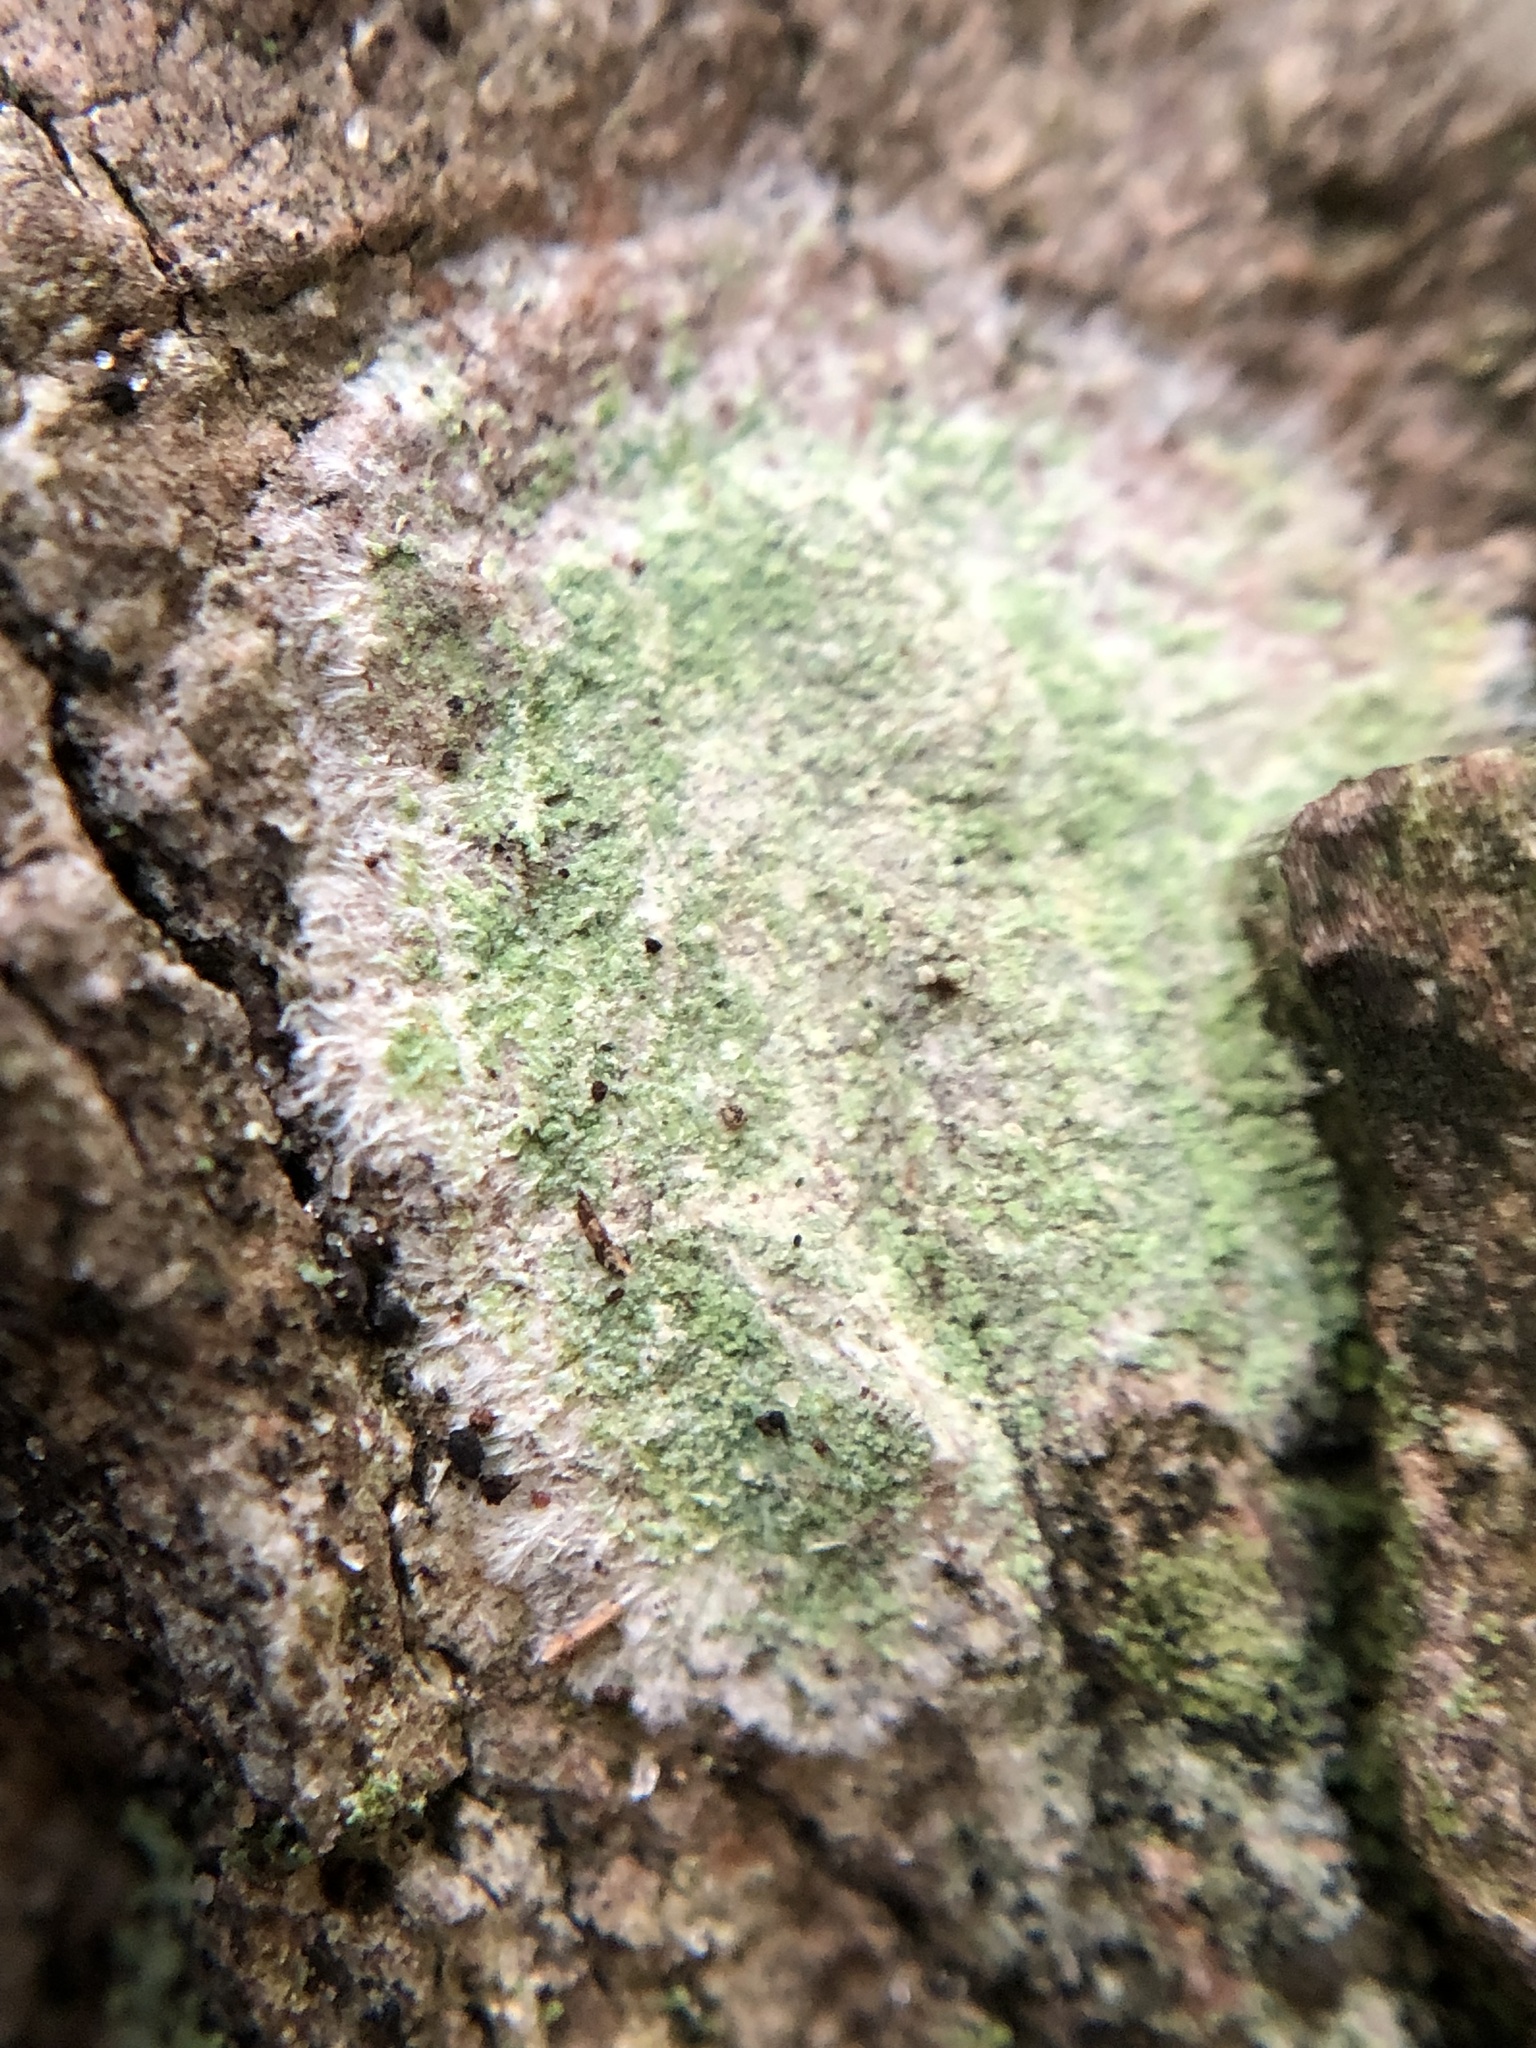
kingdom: Fungi
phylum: Ascomycota
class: Lecanoromycetes
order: Pertusariales
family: Pertusariaceae
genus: Verseghya
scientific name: Verseghya thysanophora
